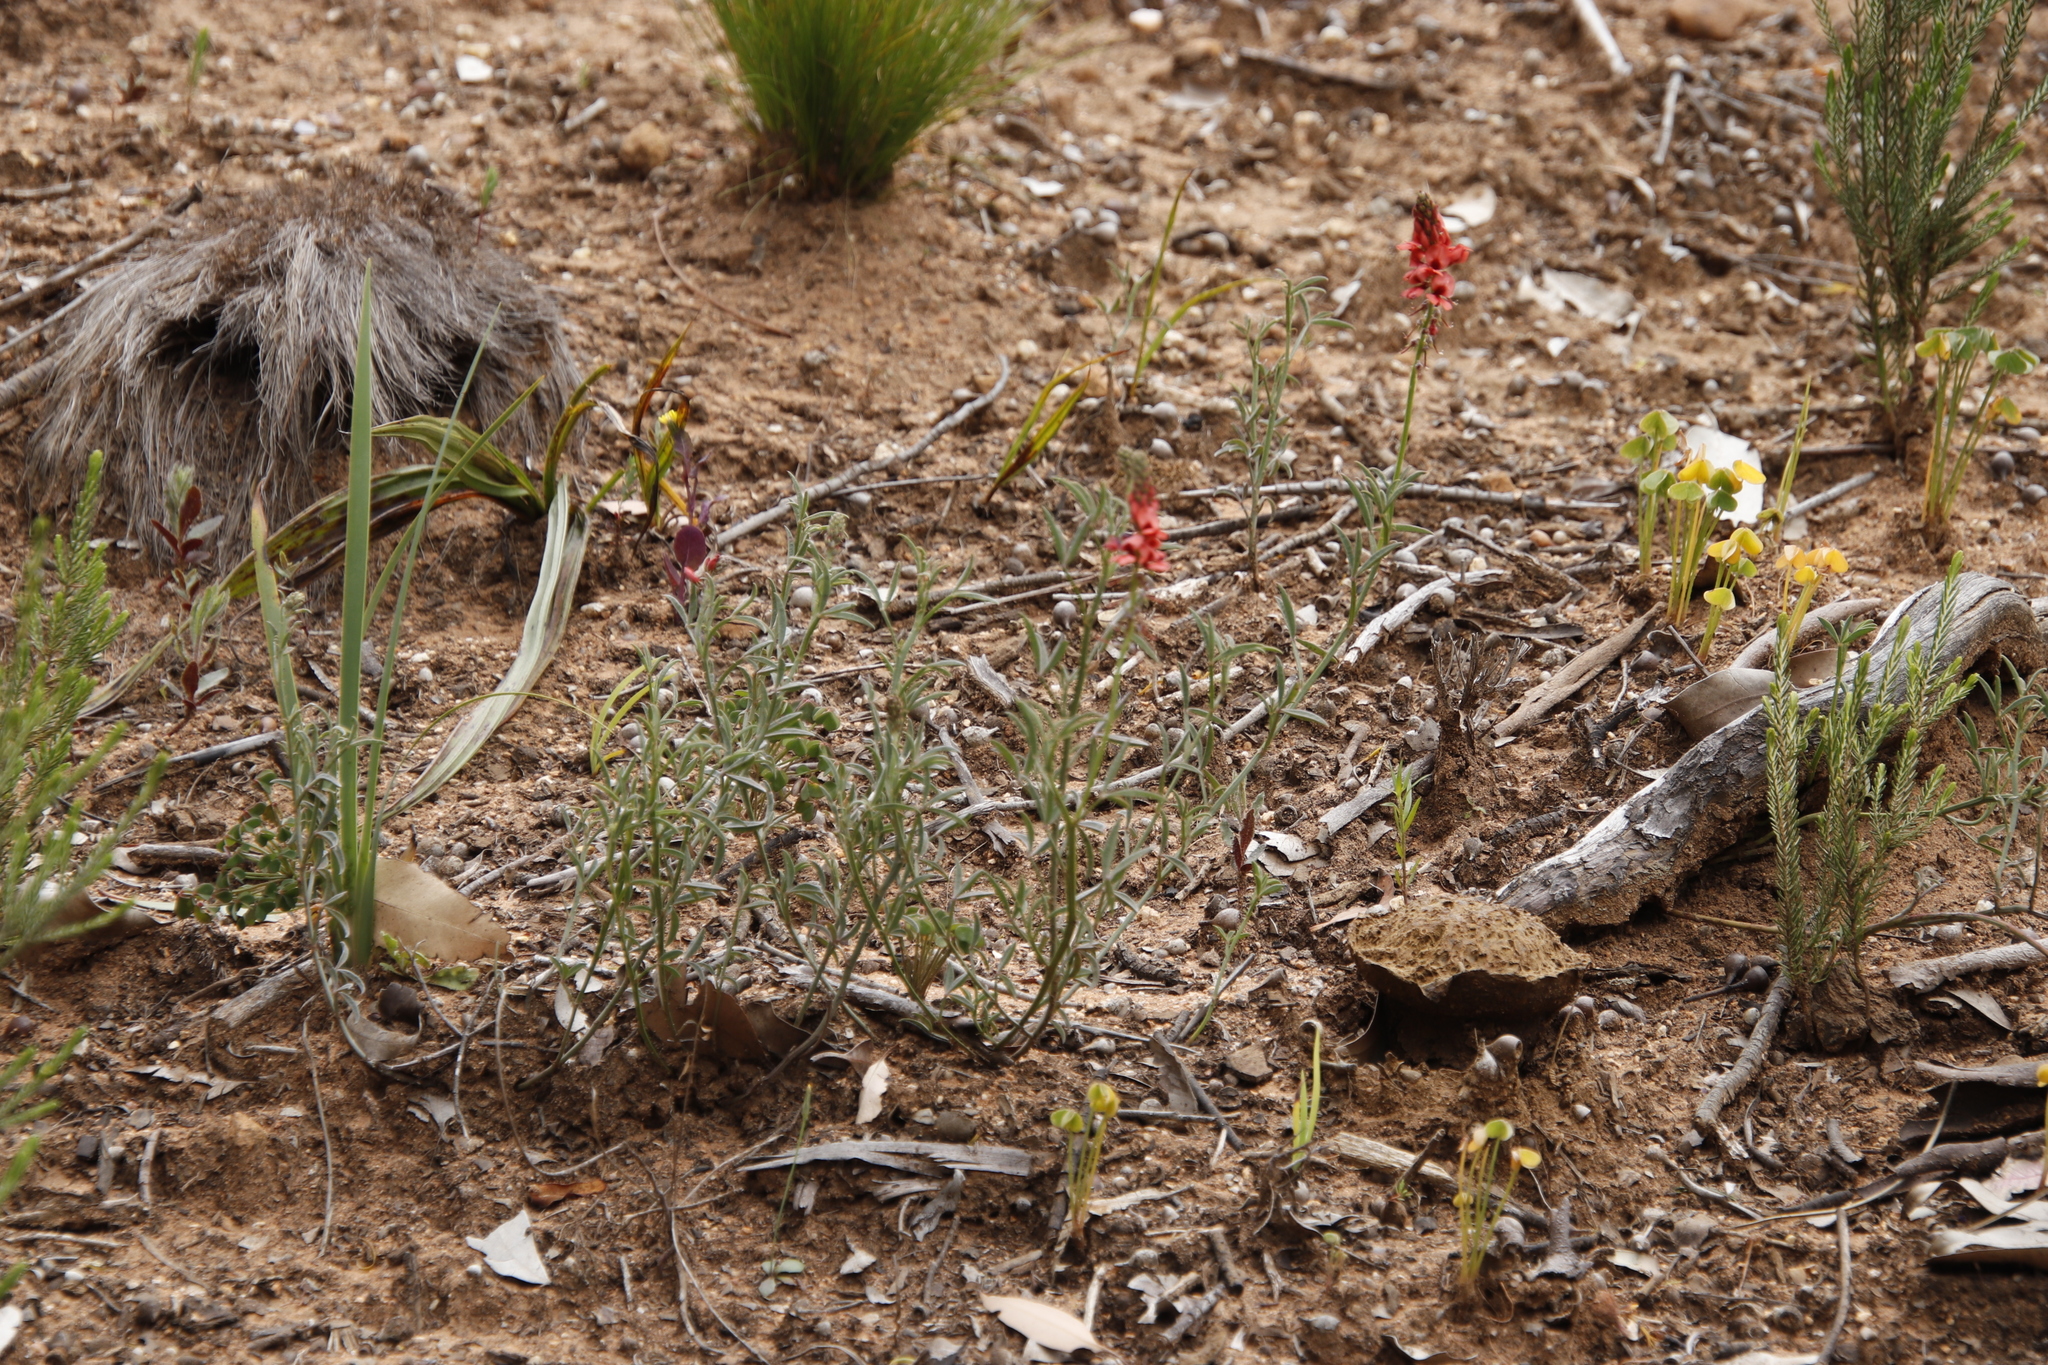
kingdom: Plantae
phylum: Tracheophyta
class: Magnoliopsida
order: Fabales
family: Fabaceae
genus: Indigofera
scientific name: Indigofera complanata
